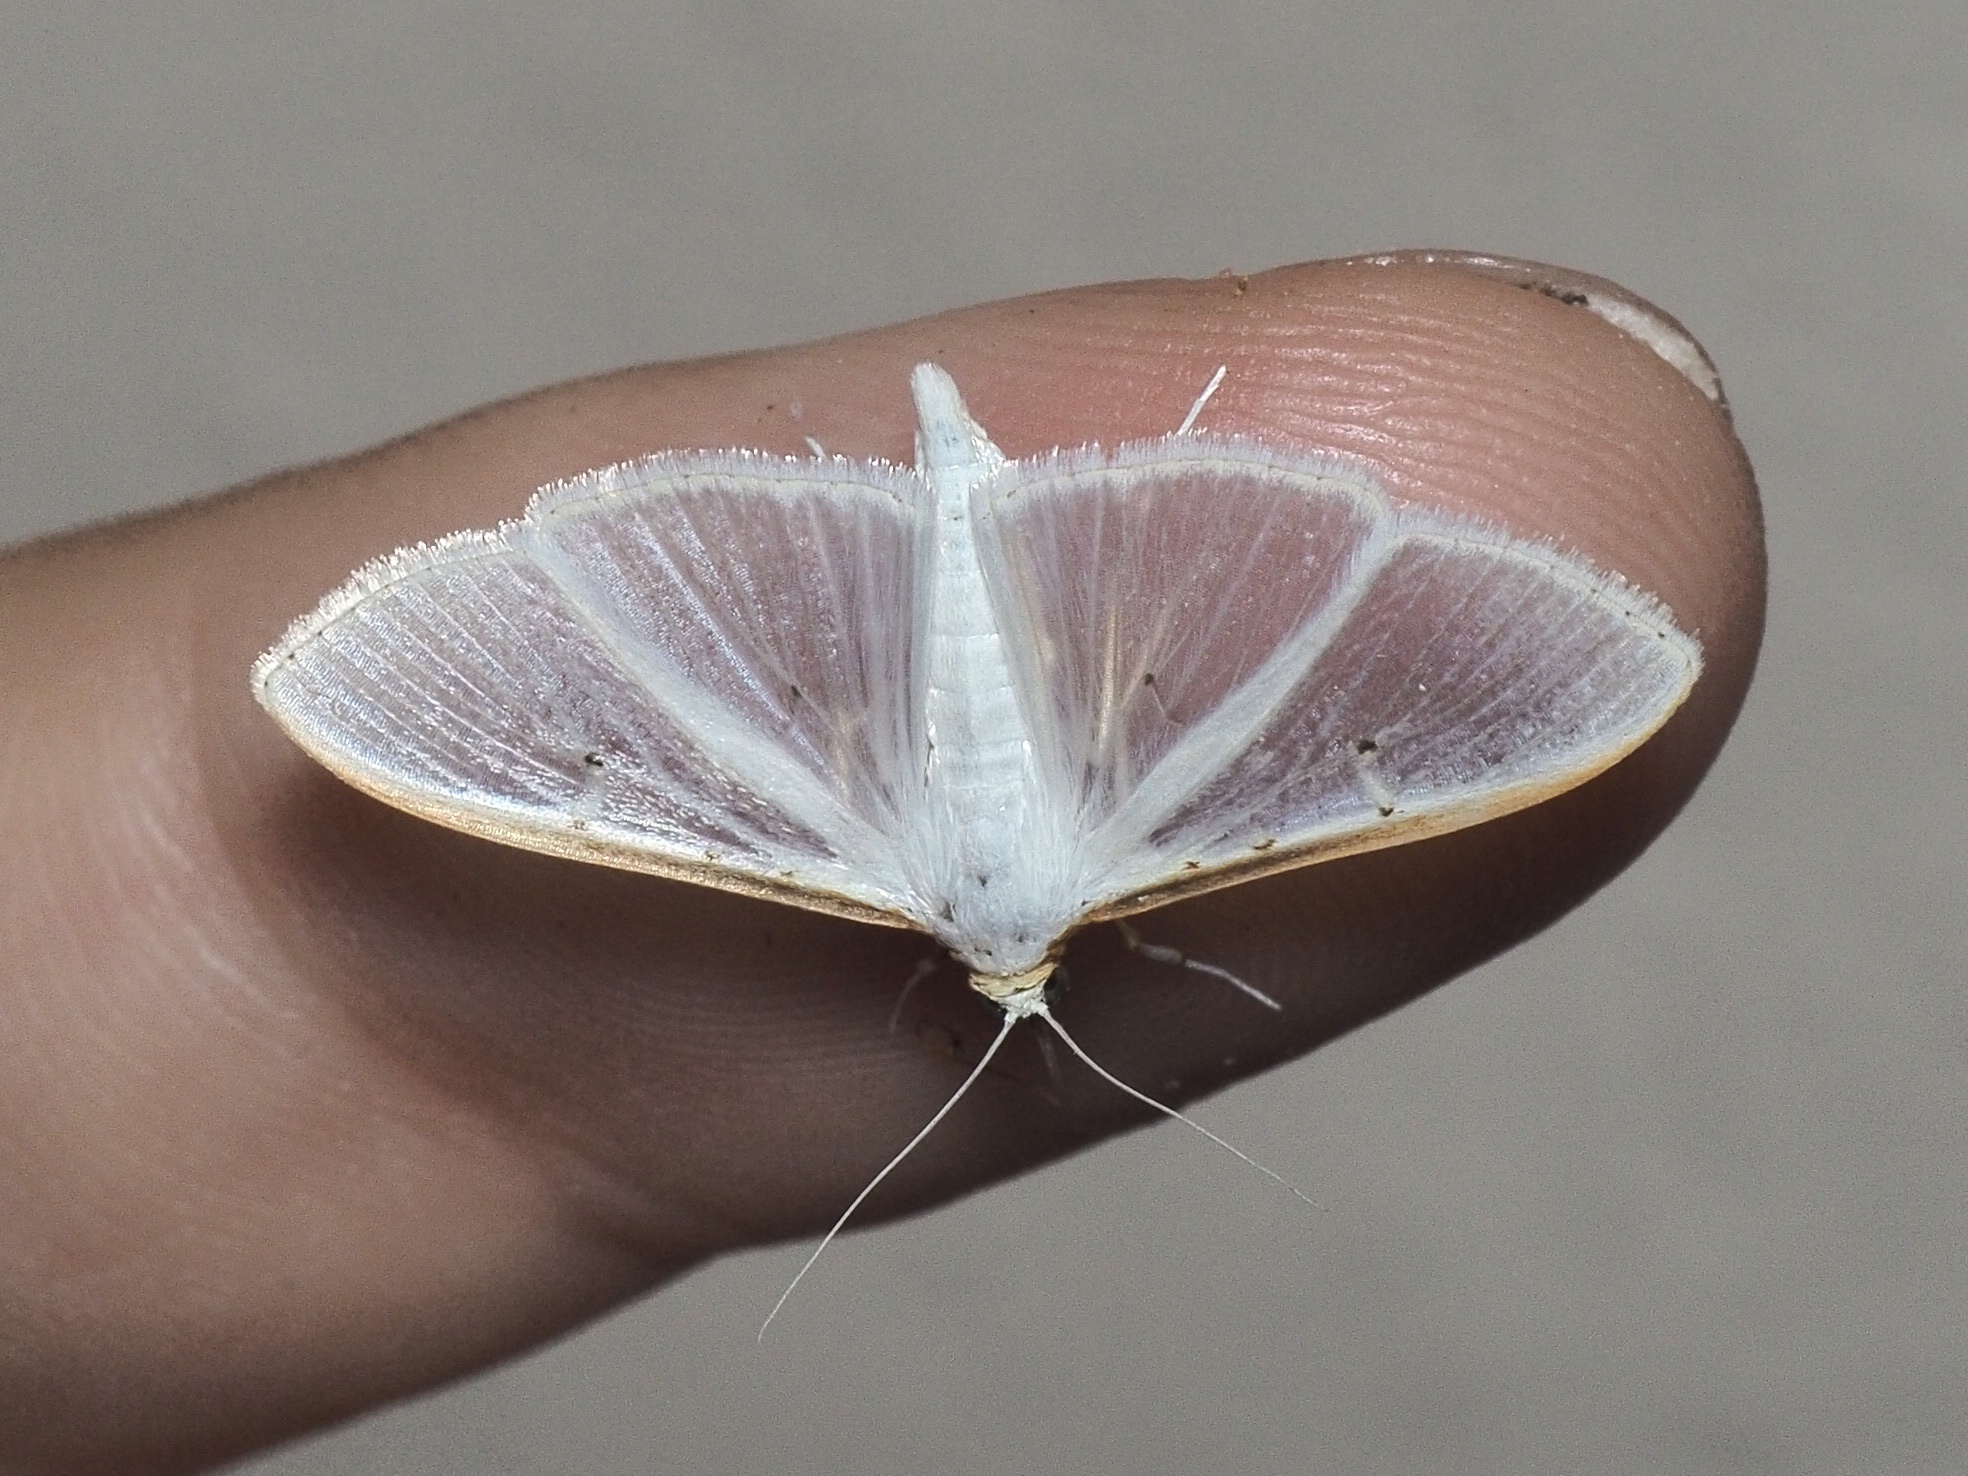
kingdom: Animalia
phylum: Arthropoda
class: Insecta
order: Lepidoptera
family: Crambidae
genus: Palpita
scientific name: Palpita vitrealis
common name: Olive-tree pearl
